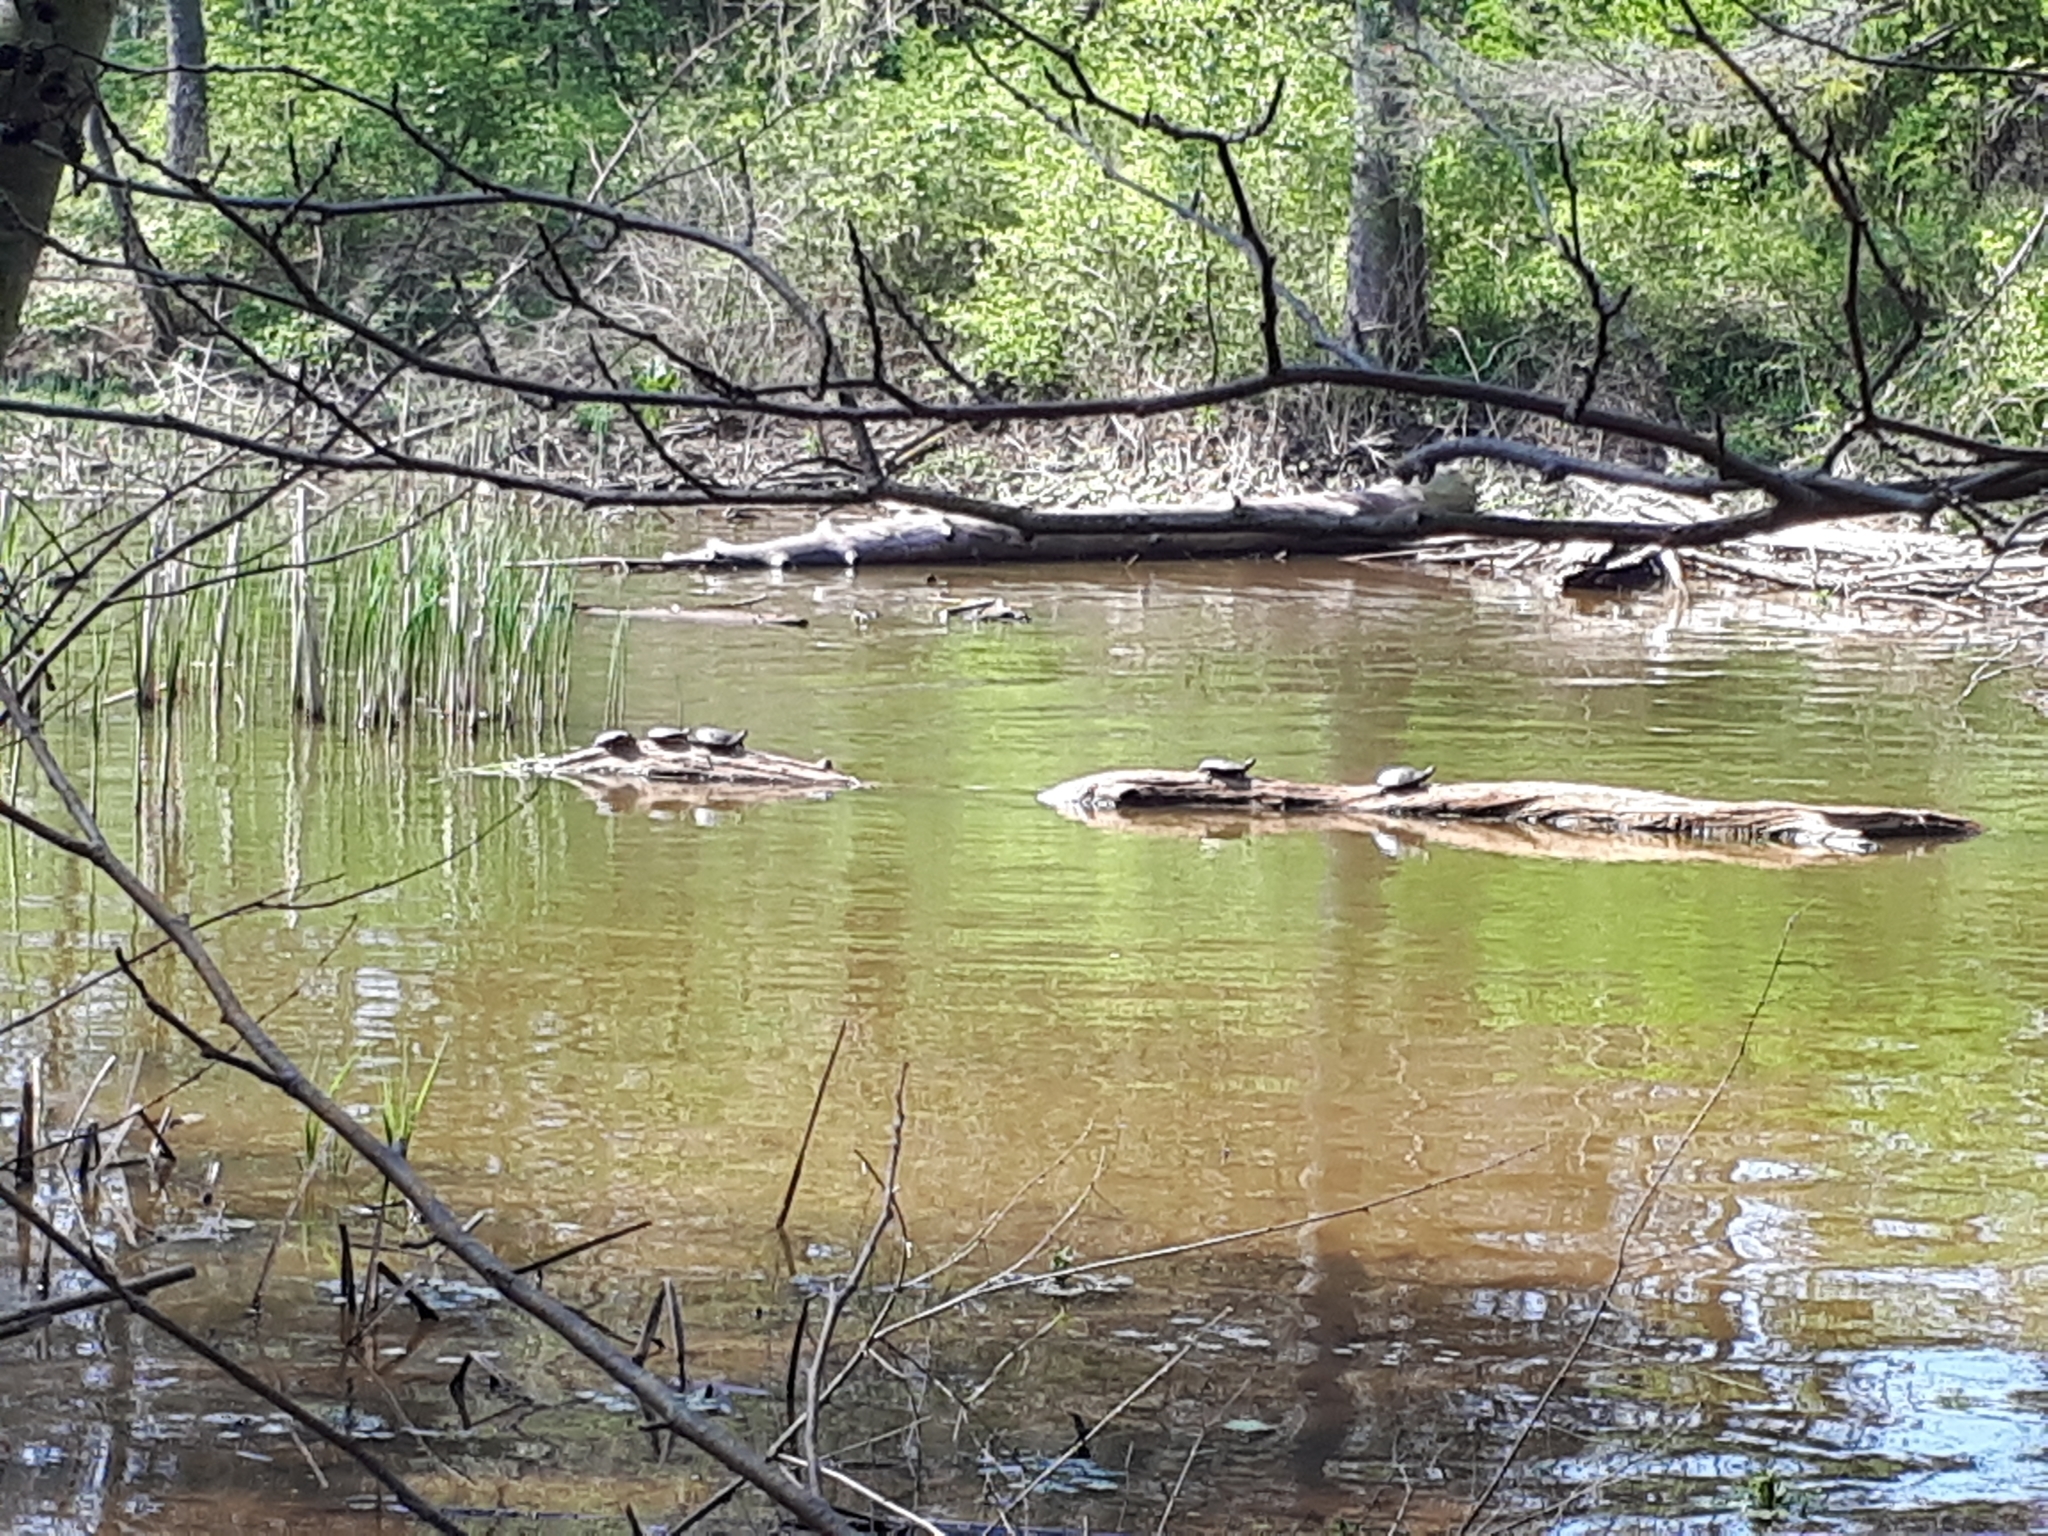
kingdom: Animalia
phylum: Chordata
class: Testudines
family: Emydidae
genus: Chrysemys
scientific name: Chrysemys picta
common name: Painted turtle
